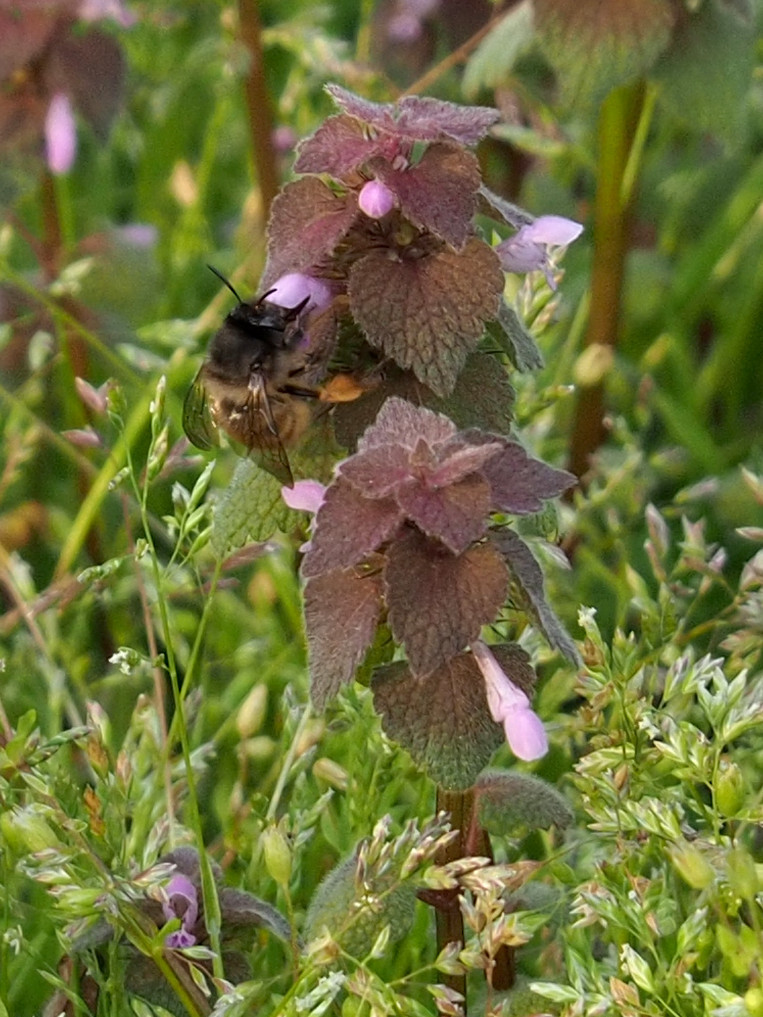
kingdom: Animalia
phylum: Arthropoda
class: Insecta
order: Hymenoptera
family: Apidae
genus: Anthophora
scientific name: Anthophora villosula
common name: Asian shaggy digger
